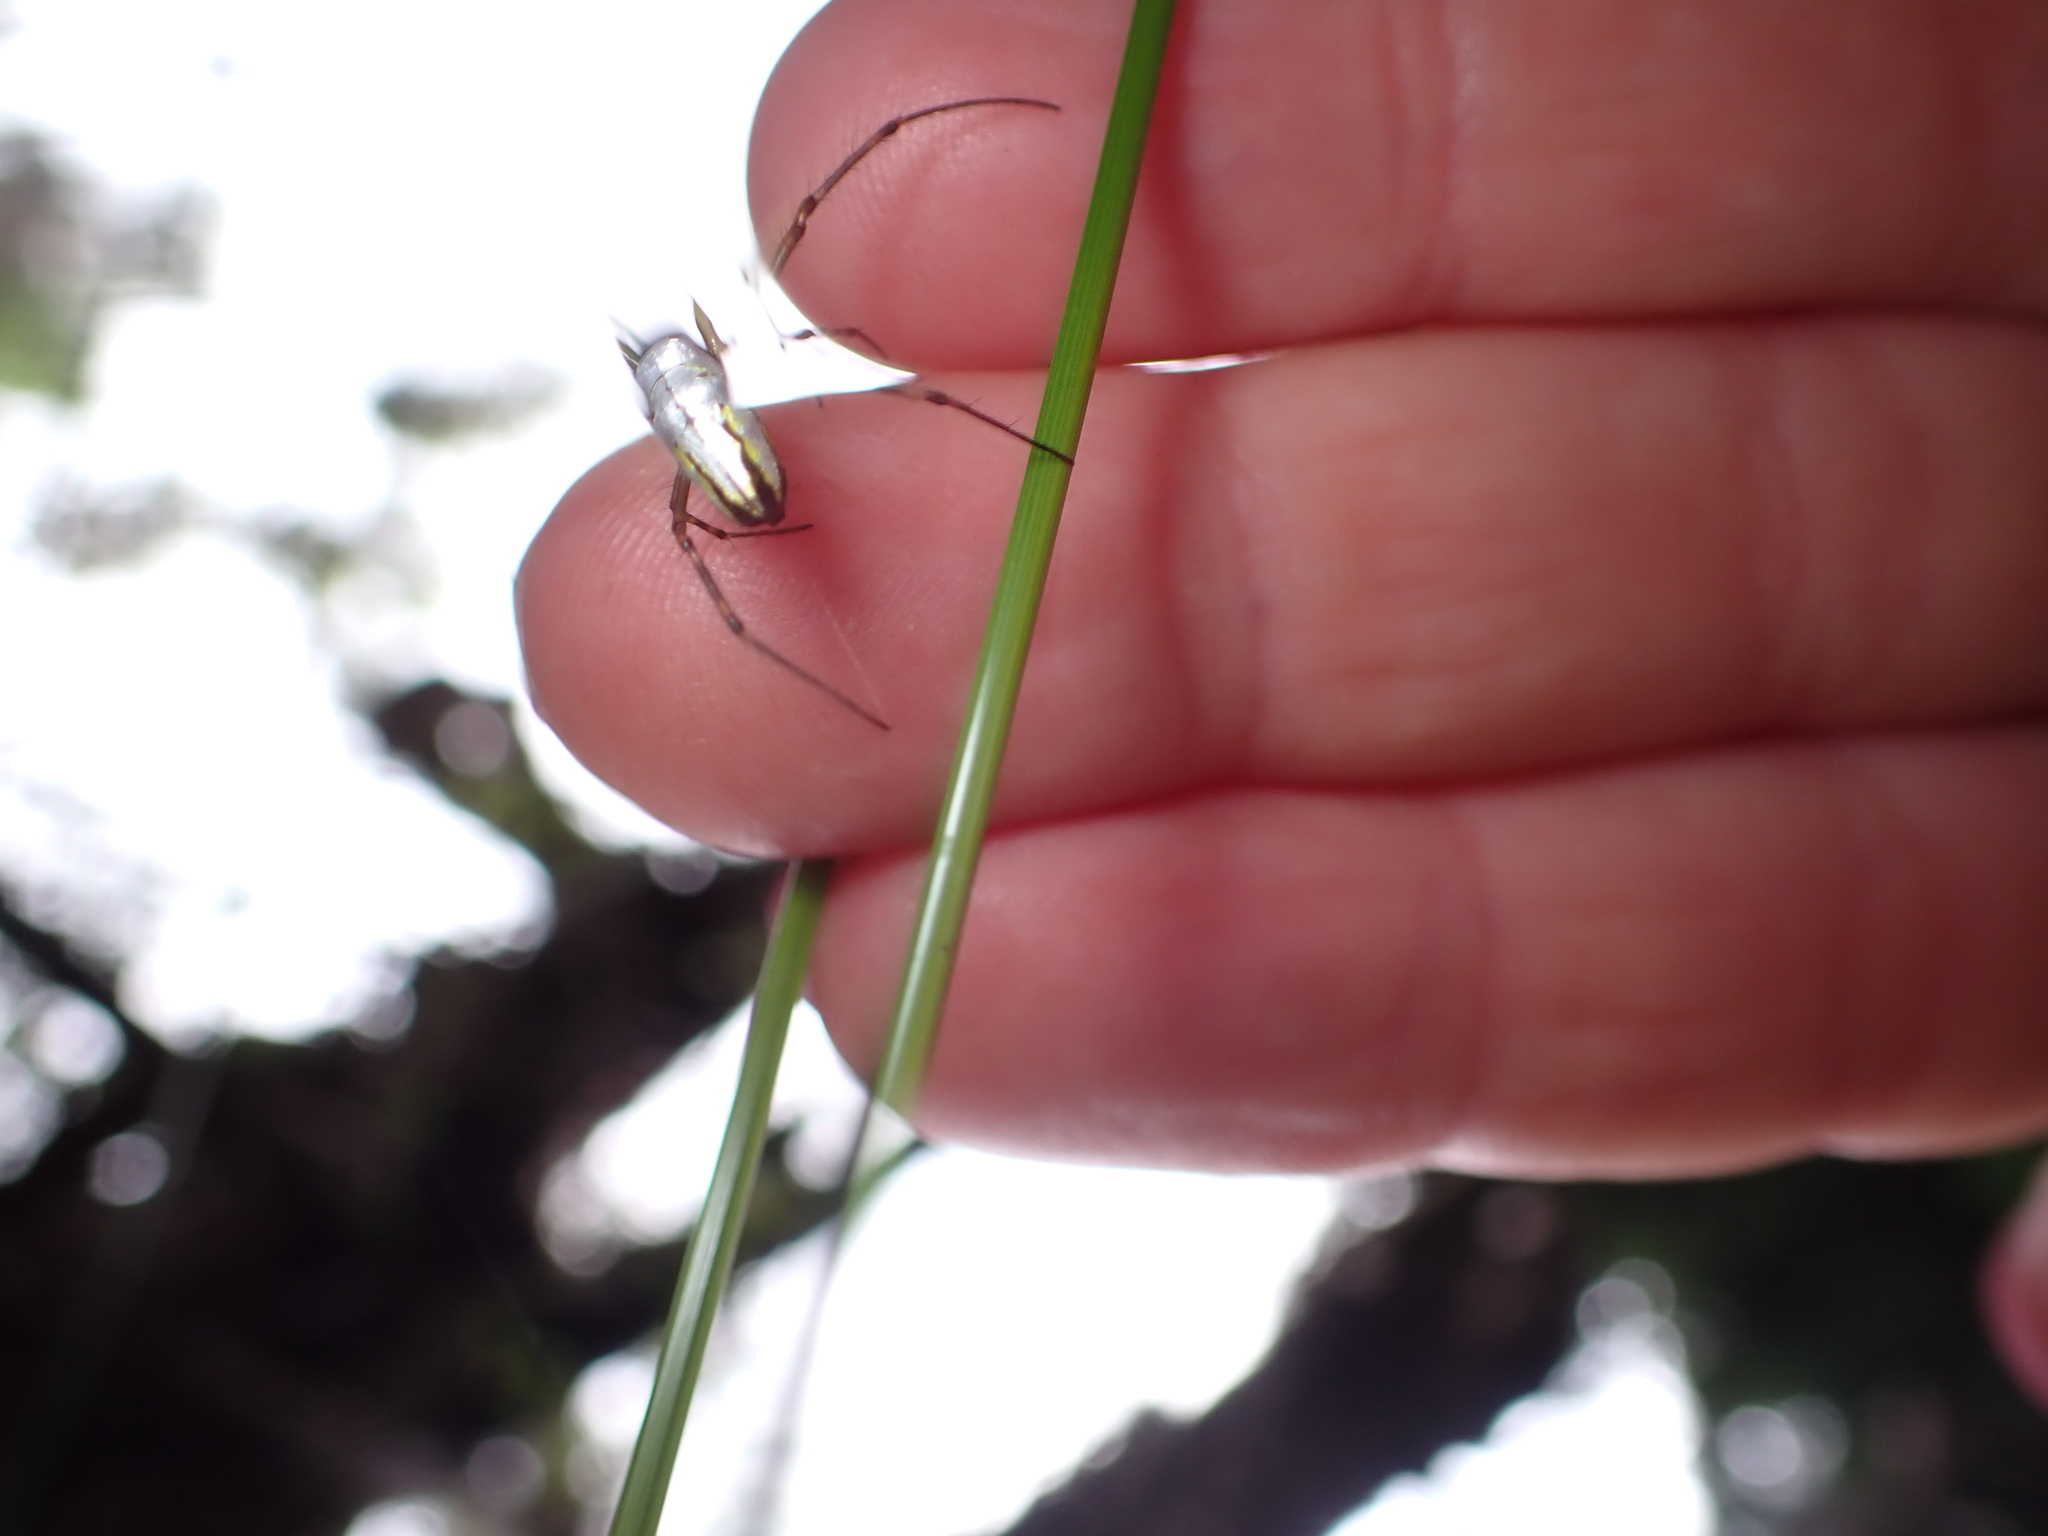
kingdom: Animalia
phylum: Arthropoda
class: Arachnida
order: Araneae
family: Tetragnathidae
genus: Leucauge
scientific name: Leucauge dromedaria
